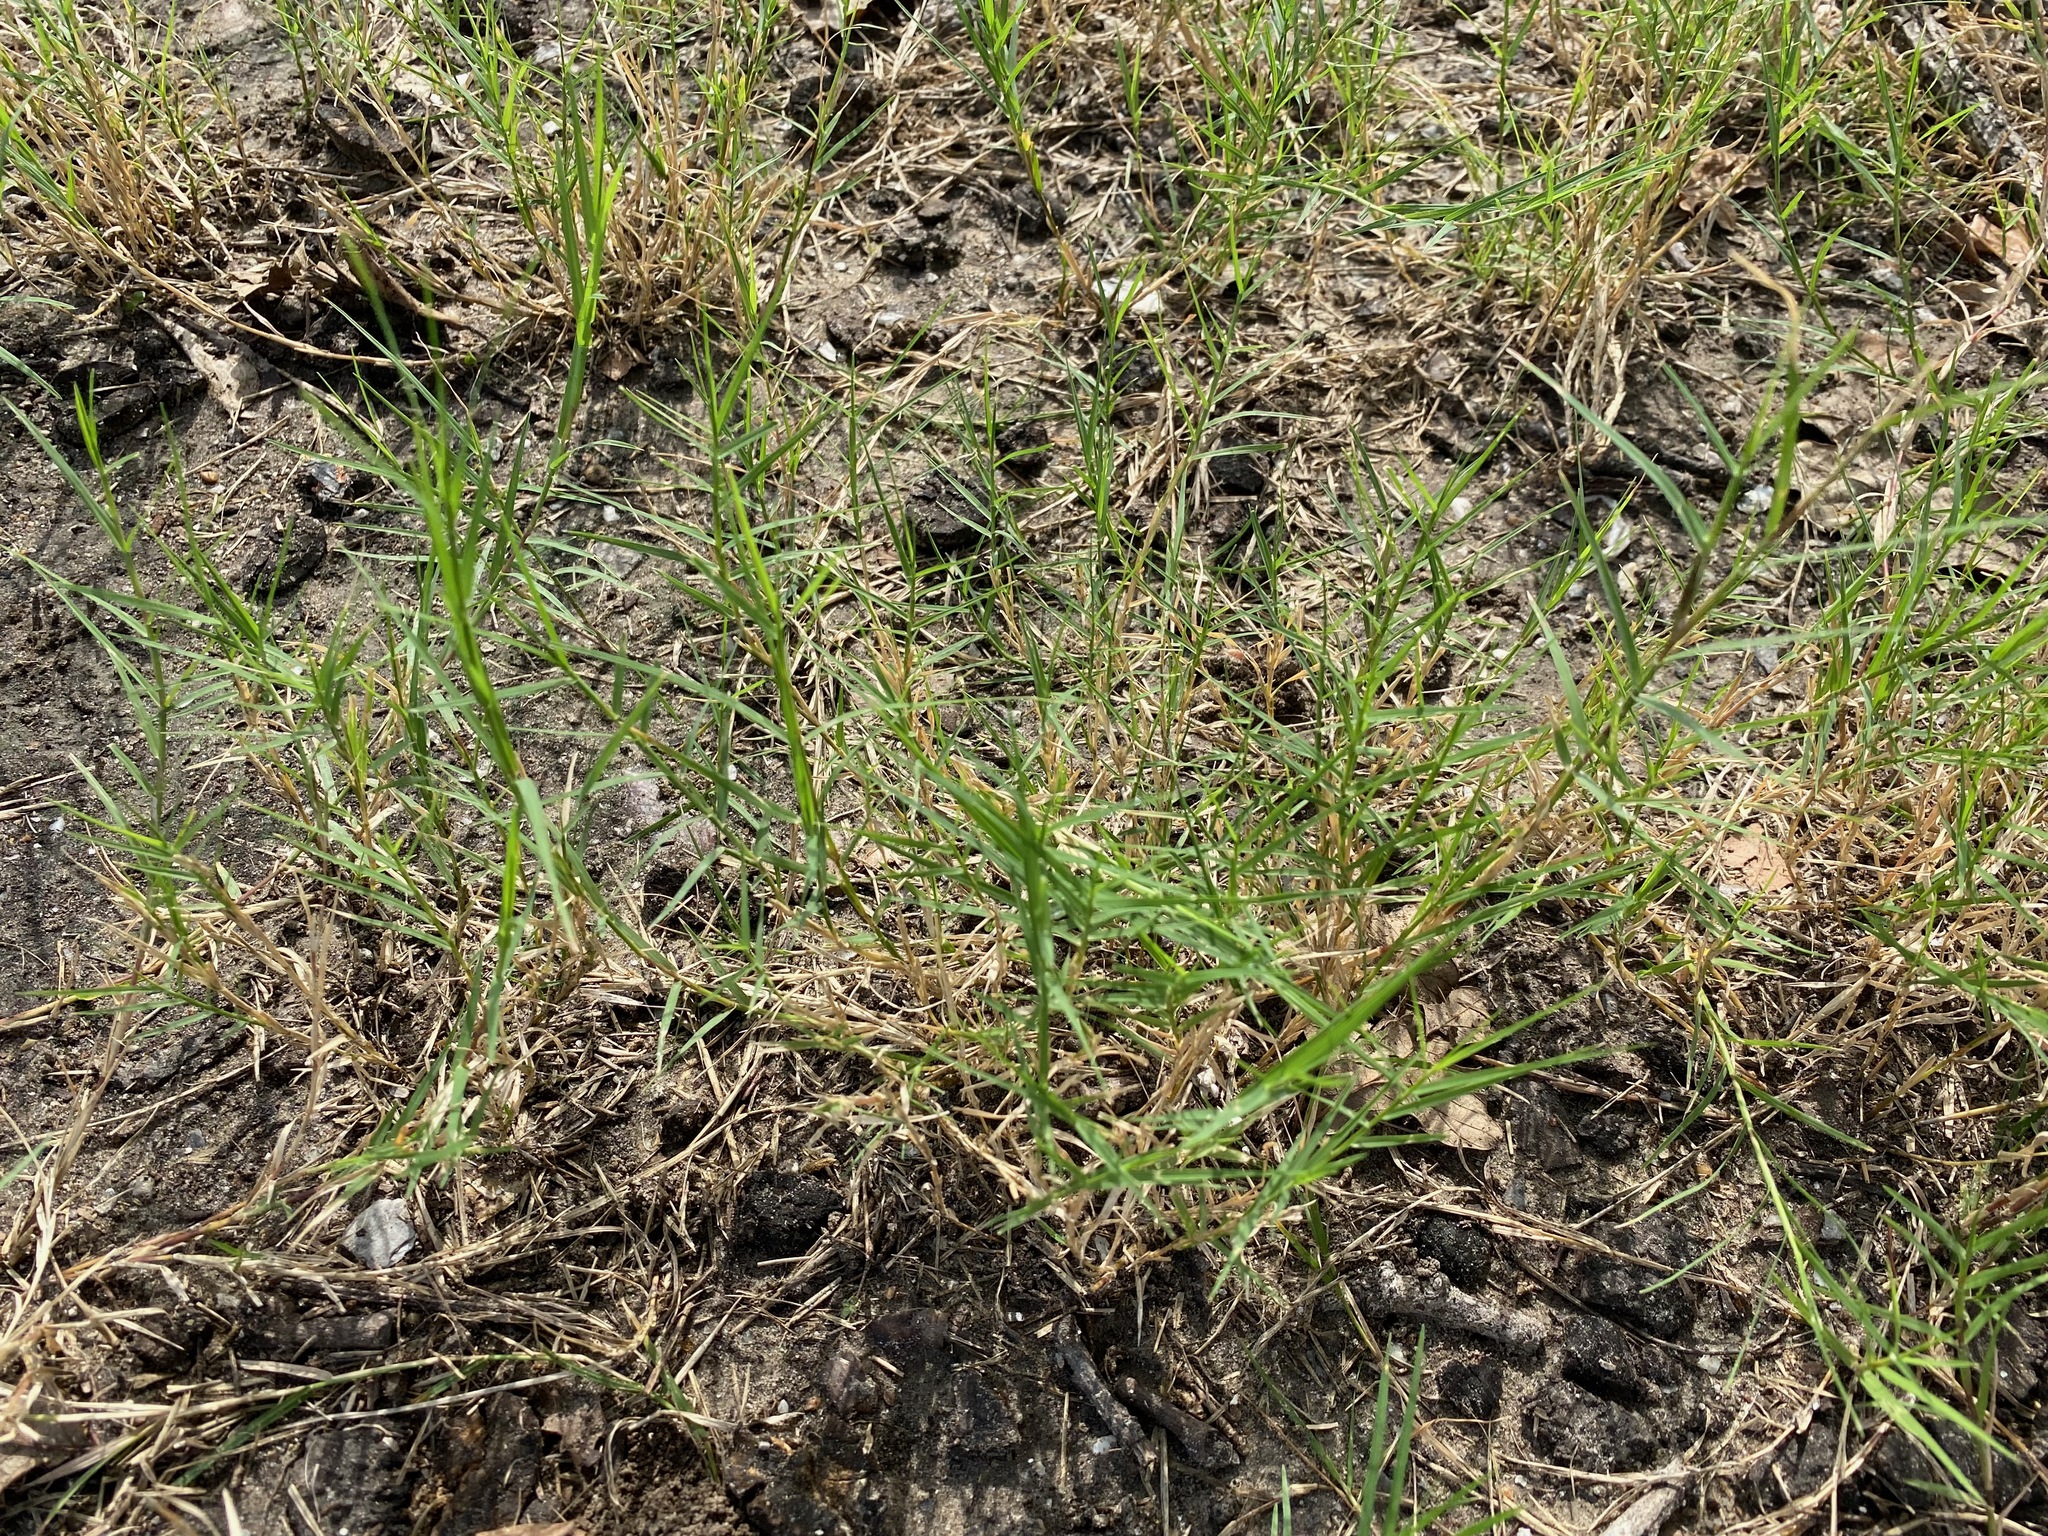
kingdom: Plantae
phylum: Tracheophyta
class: Liliopsida
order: Poales
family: Poaceae
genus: Cynodon
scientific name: Cynodon dactylon
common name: Bermuda grass
